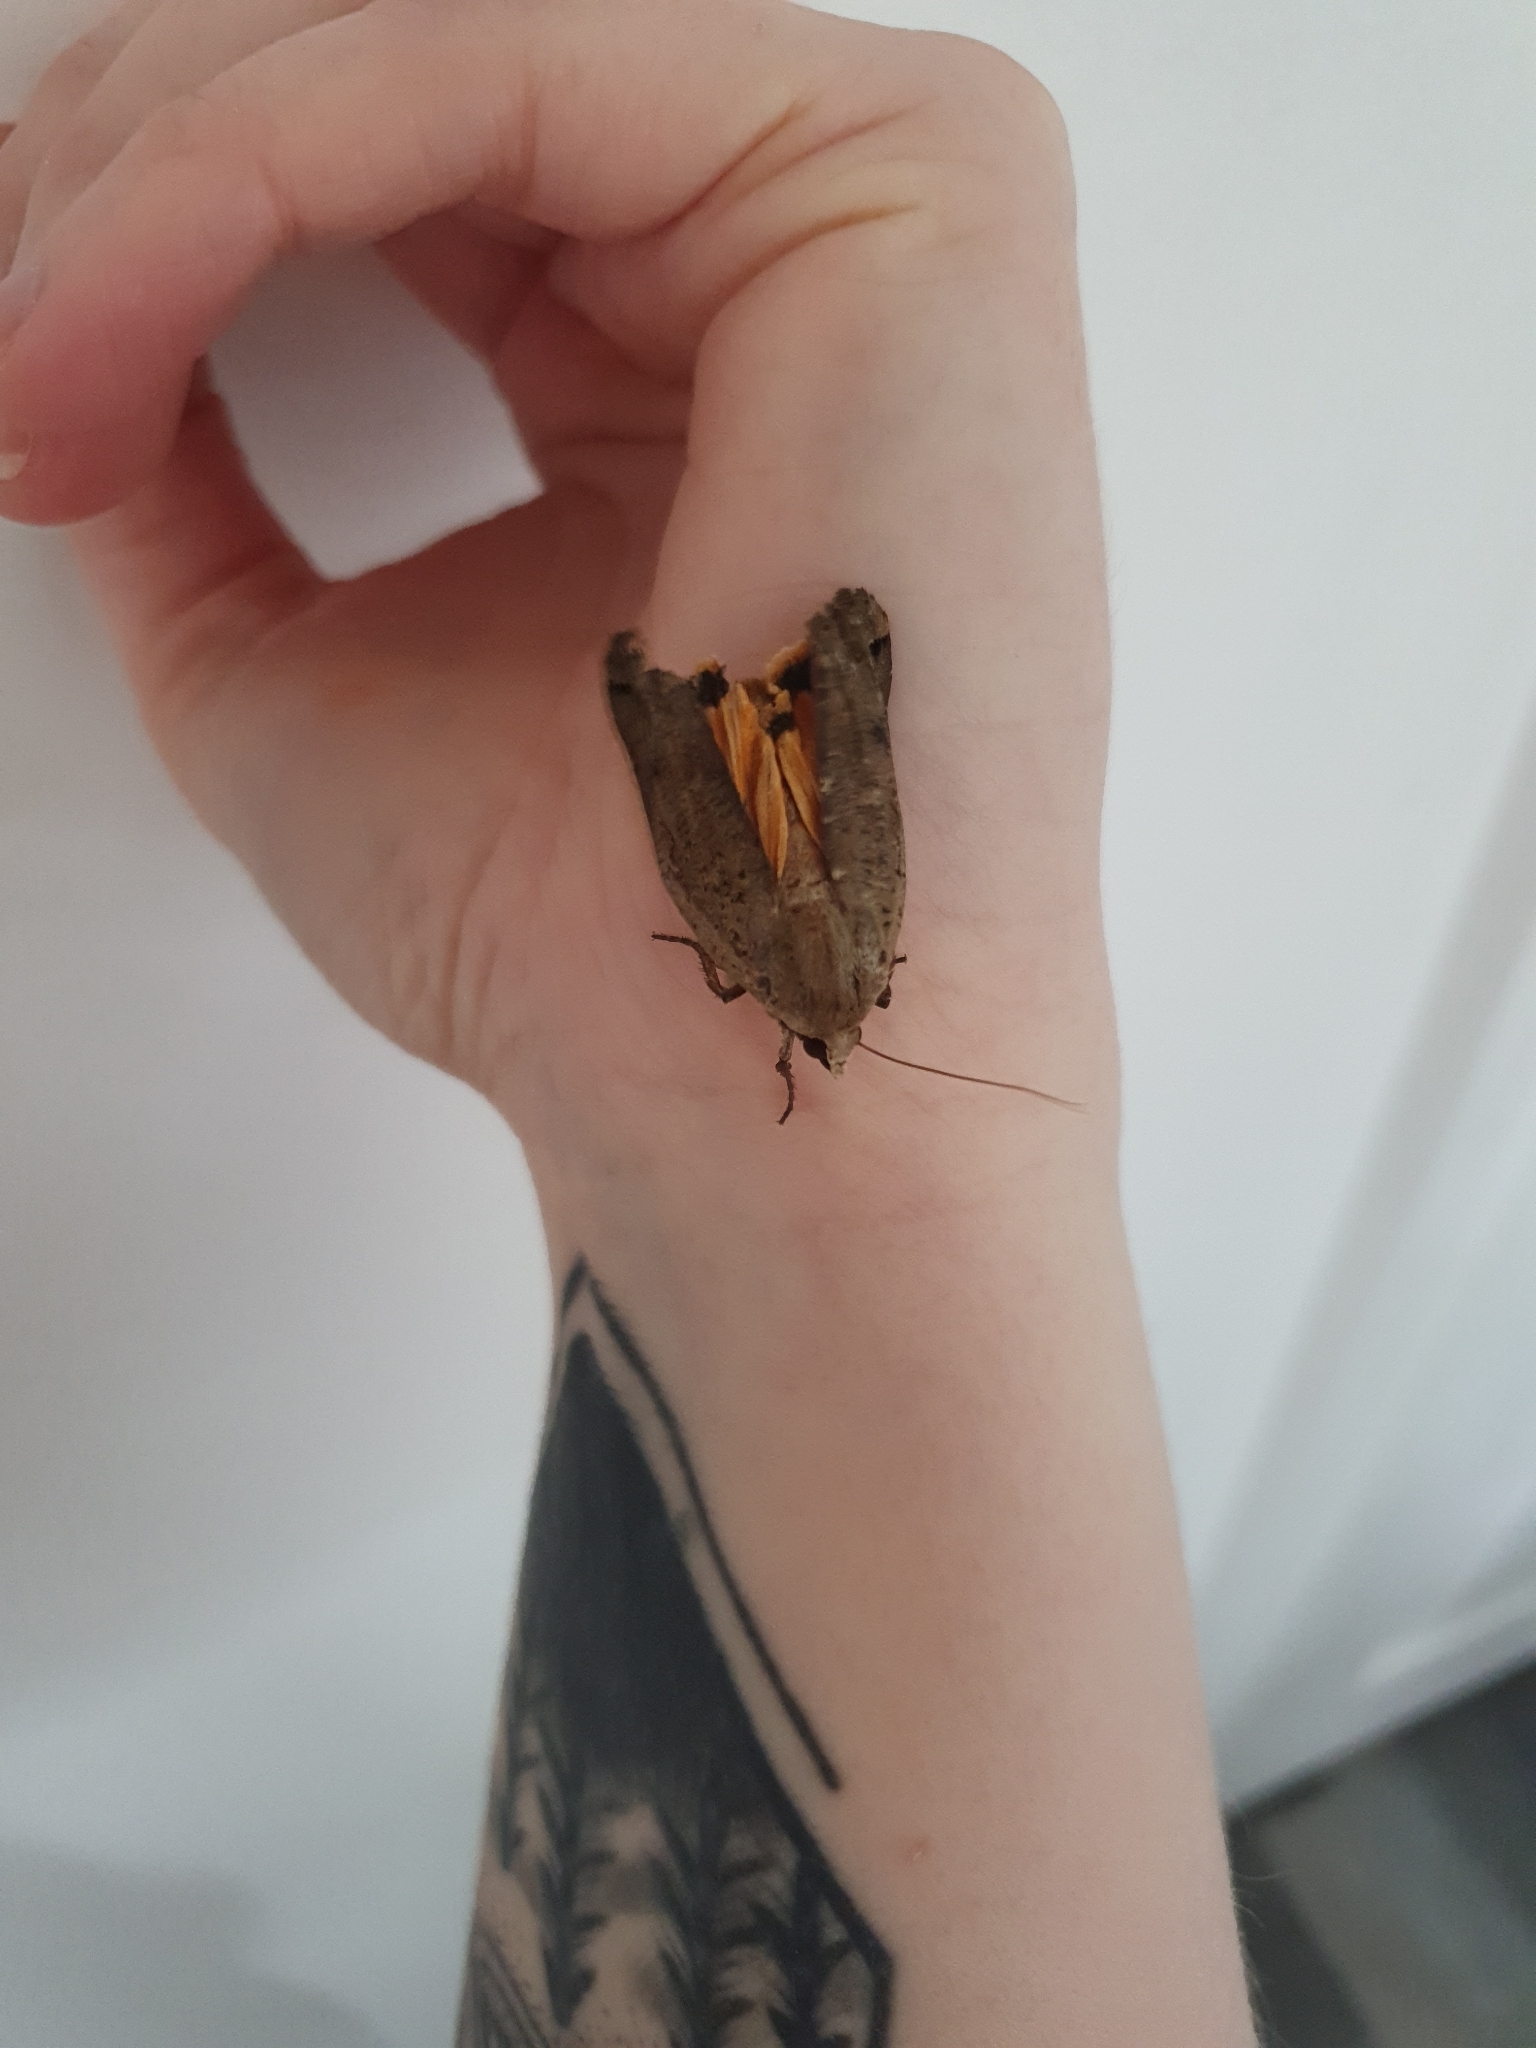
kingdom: Animalia
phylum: Arthropoda
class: Insecta
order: Lepidoptera
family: Noctuidae
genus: Noctua
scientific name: Noctua pronuba
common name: Large yellow underwing
